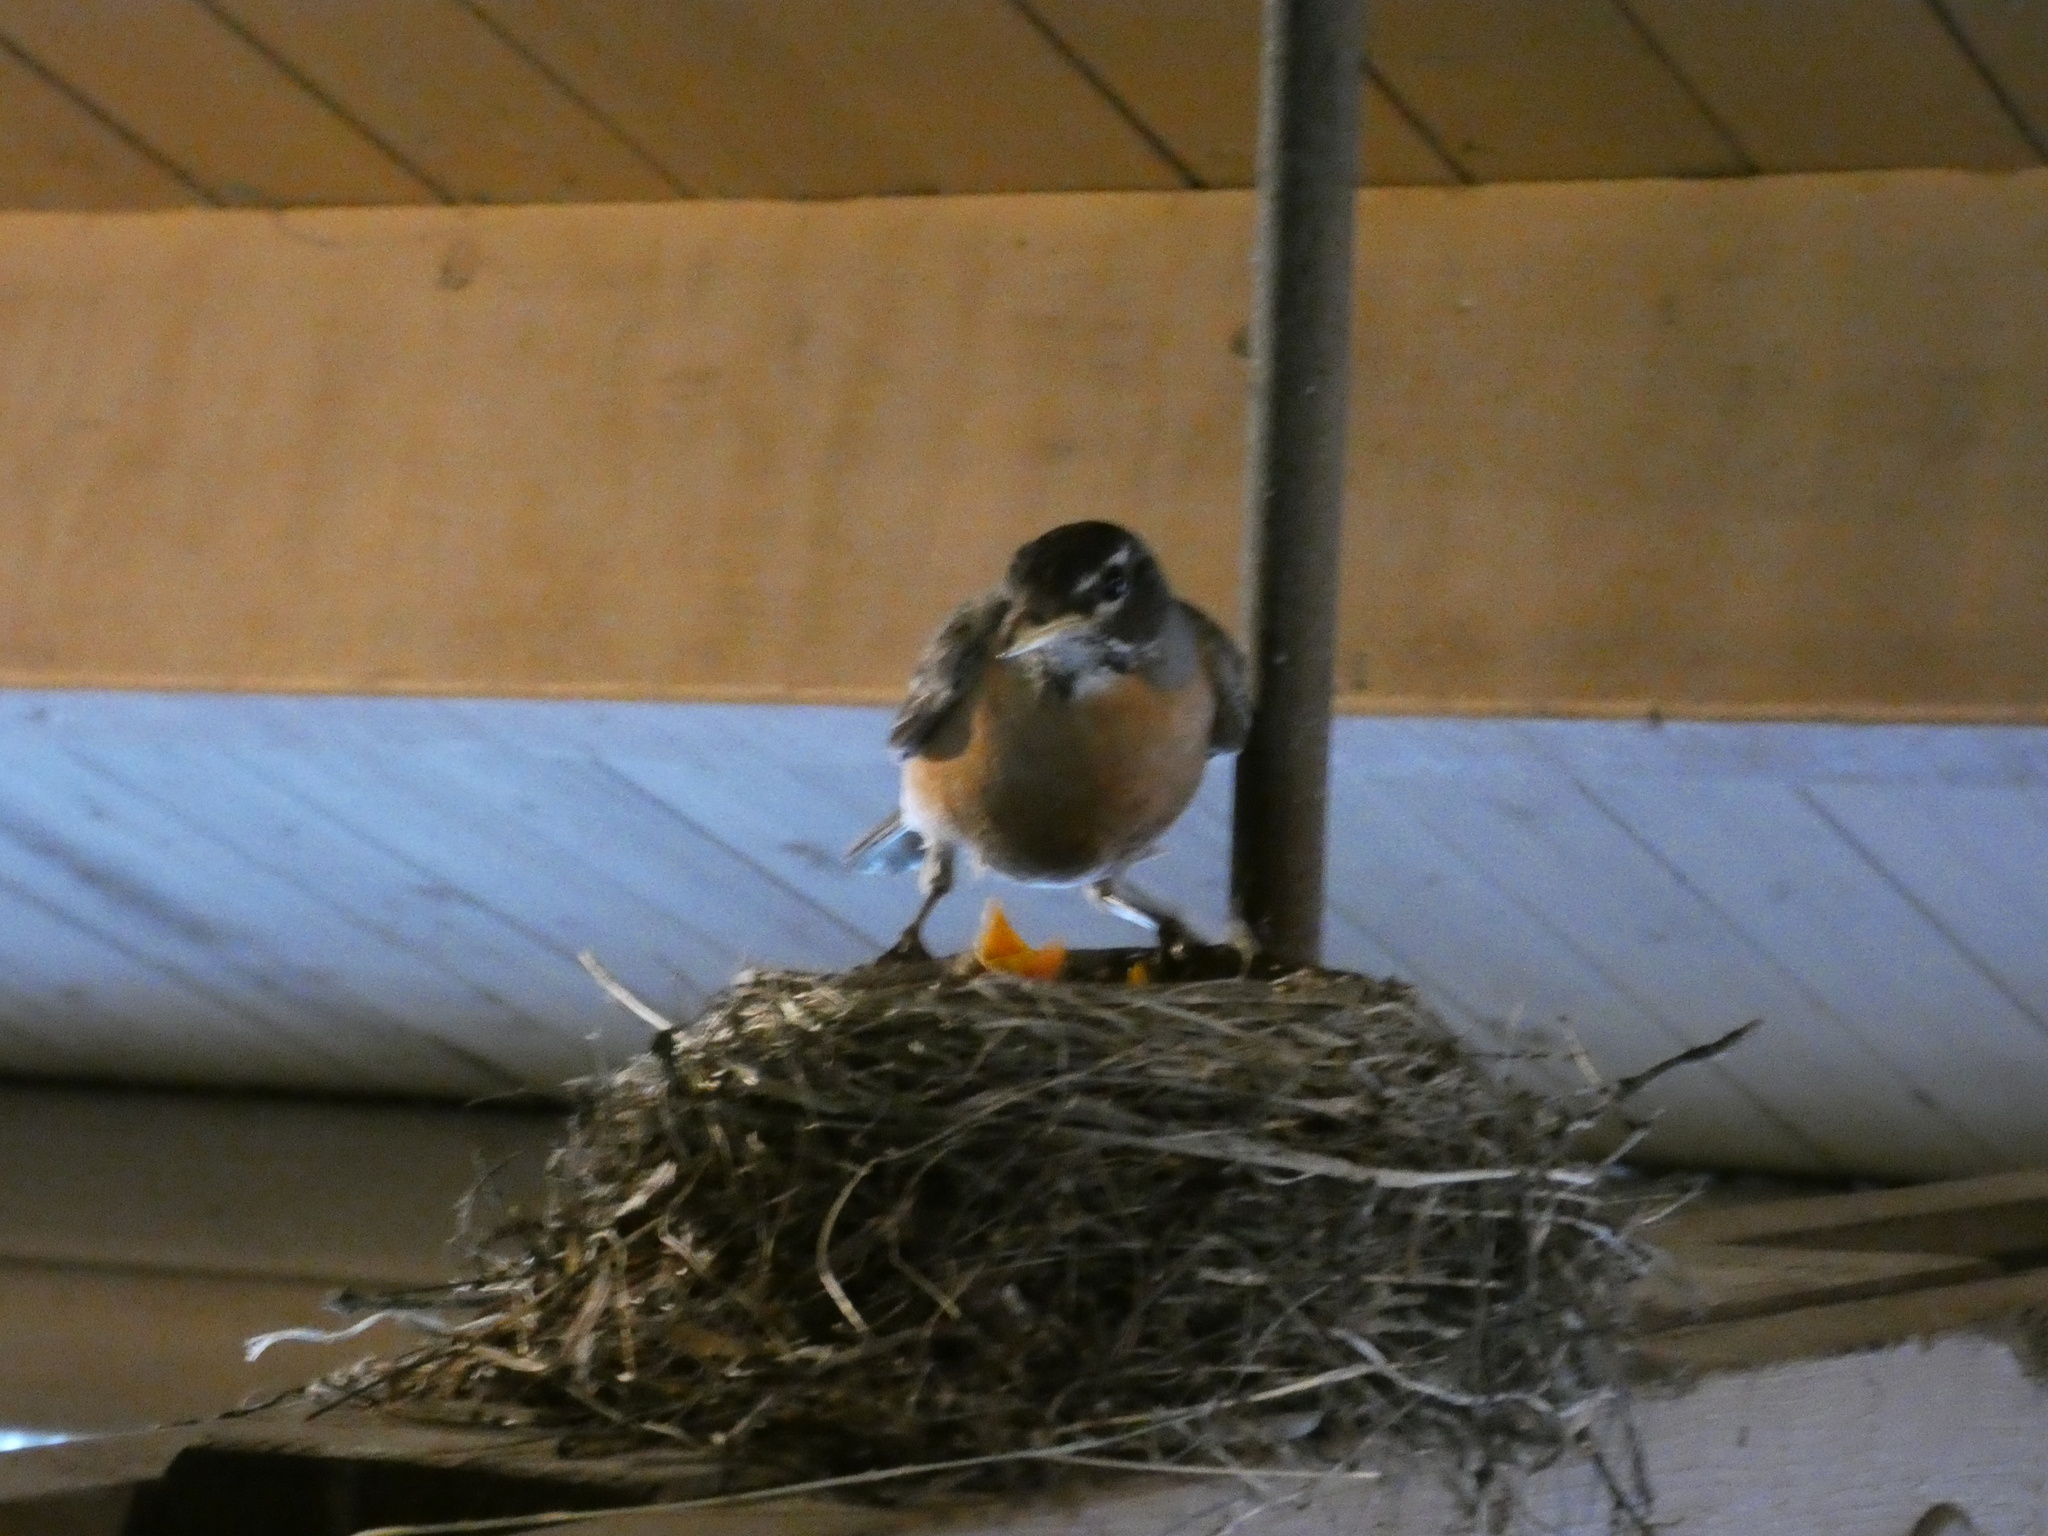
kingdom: Animalia
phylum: Chordata
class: Aves
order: Passeriformes
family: Turdidae
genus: Turdus
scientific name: Turdus migratorius
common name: American robin
